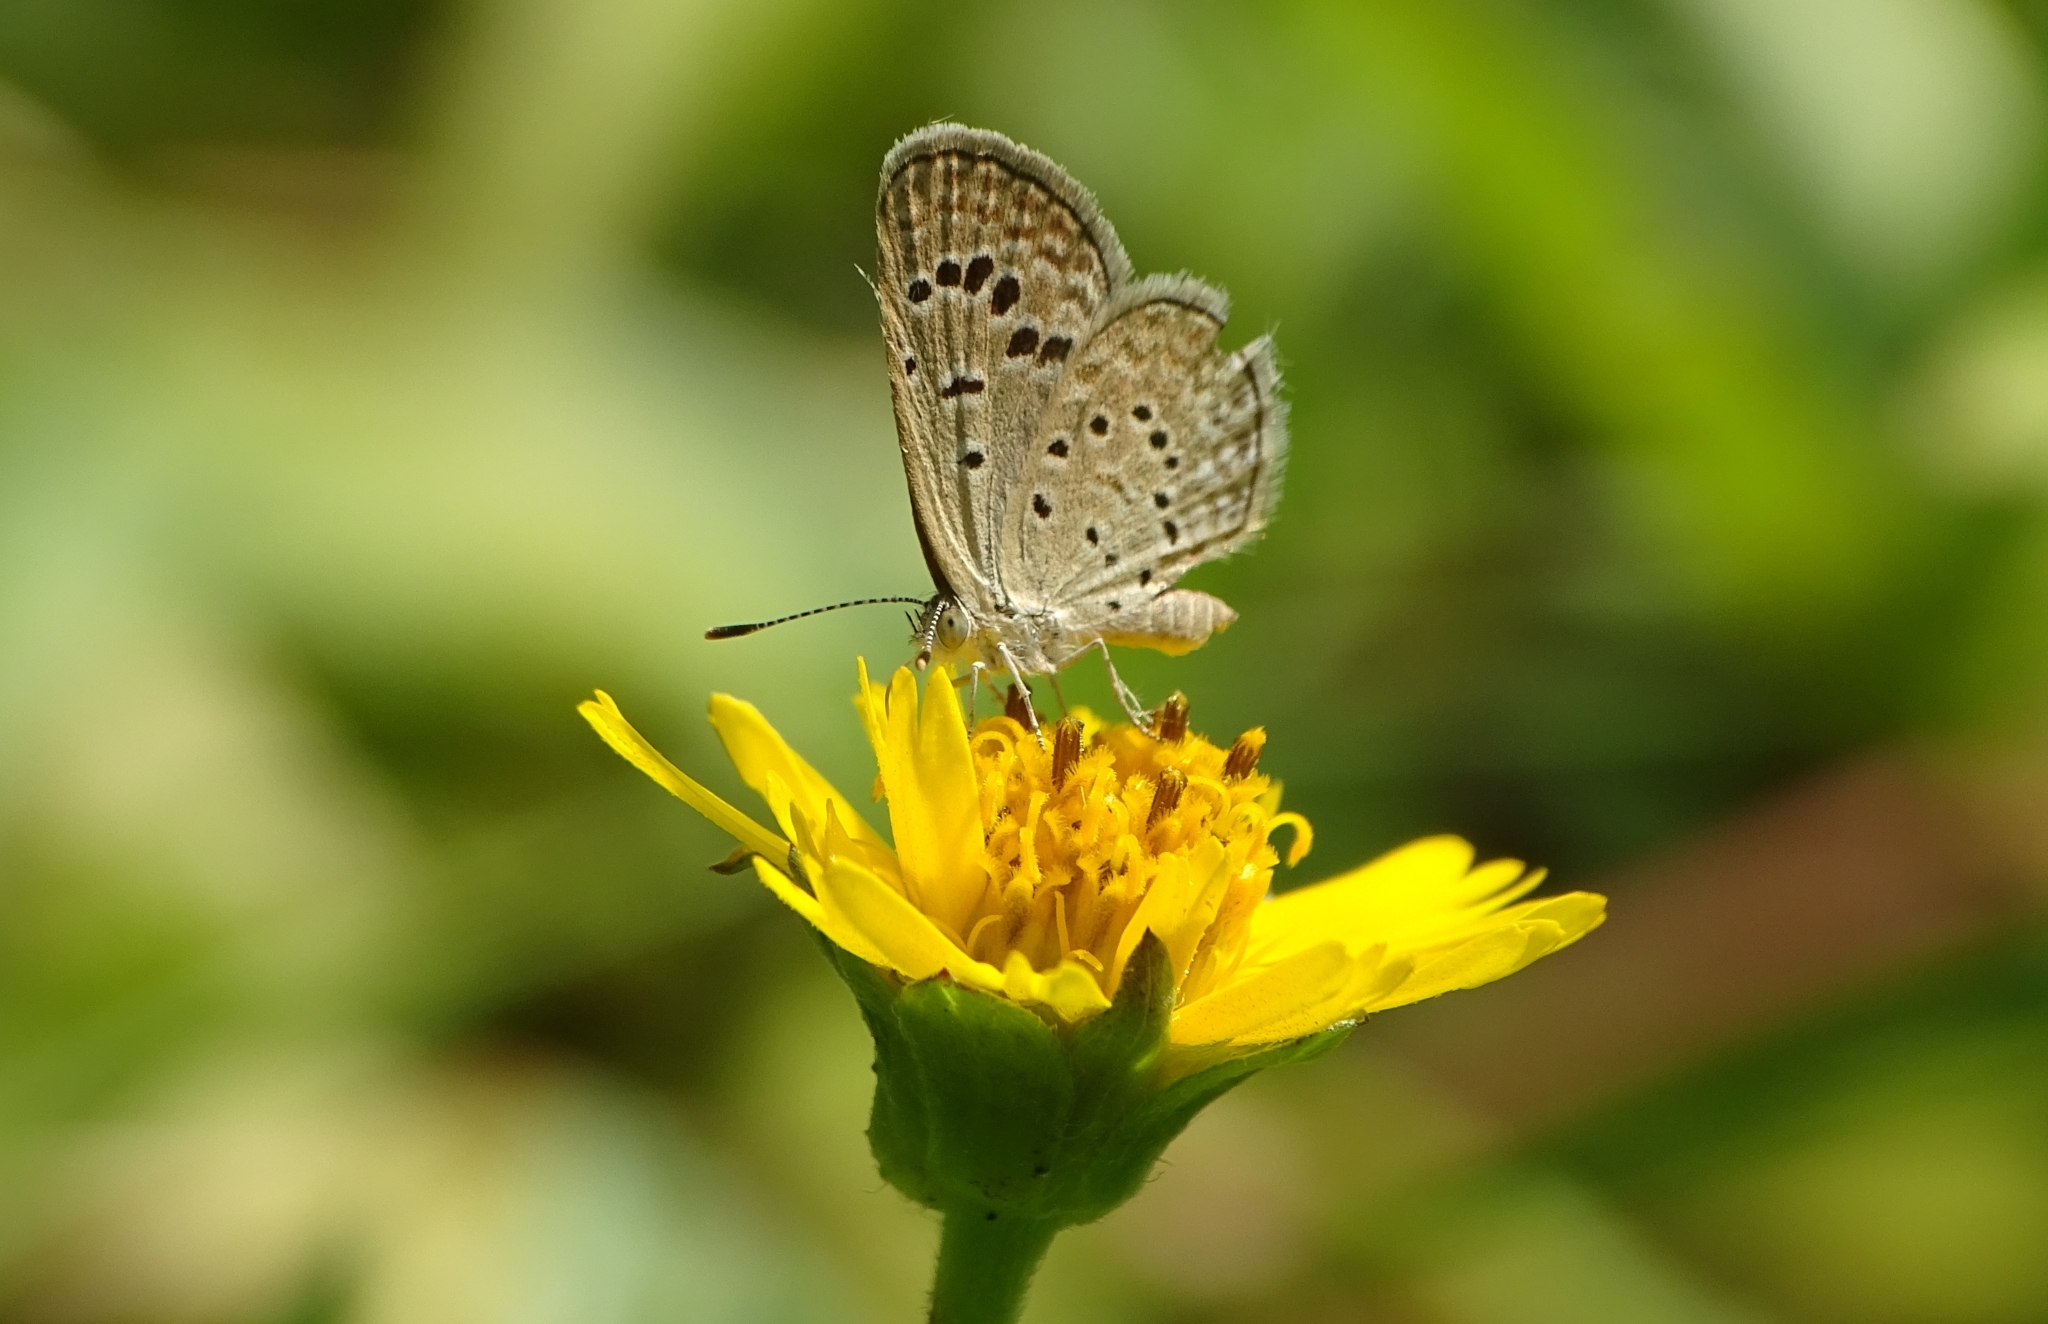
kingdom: Animalia
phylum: Arthropoda
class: Insecta
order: Lepidoptera
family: Lycaenidae
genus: Zizeeria
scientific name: Zizeeria karsandra
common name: Dark grass blue
